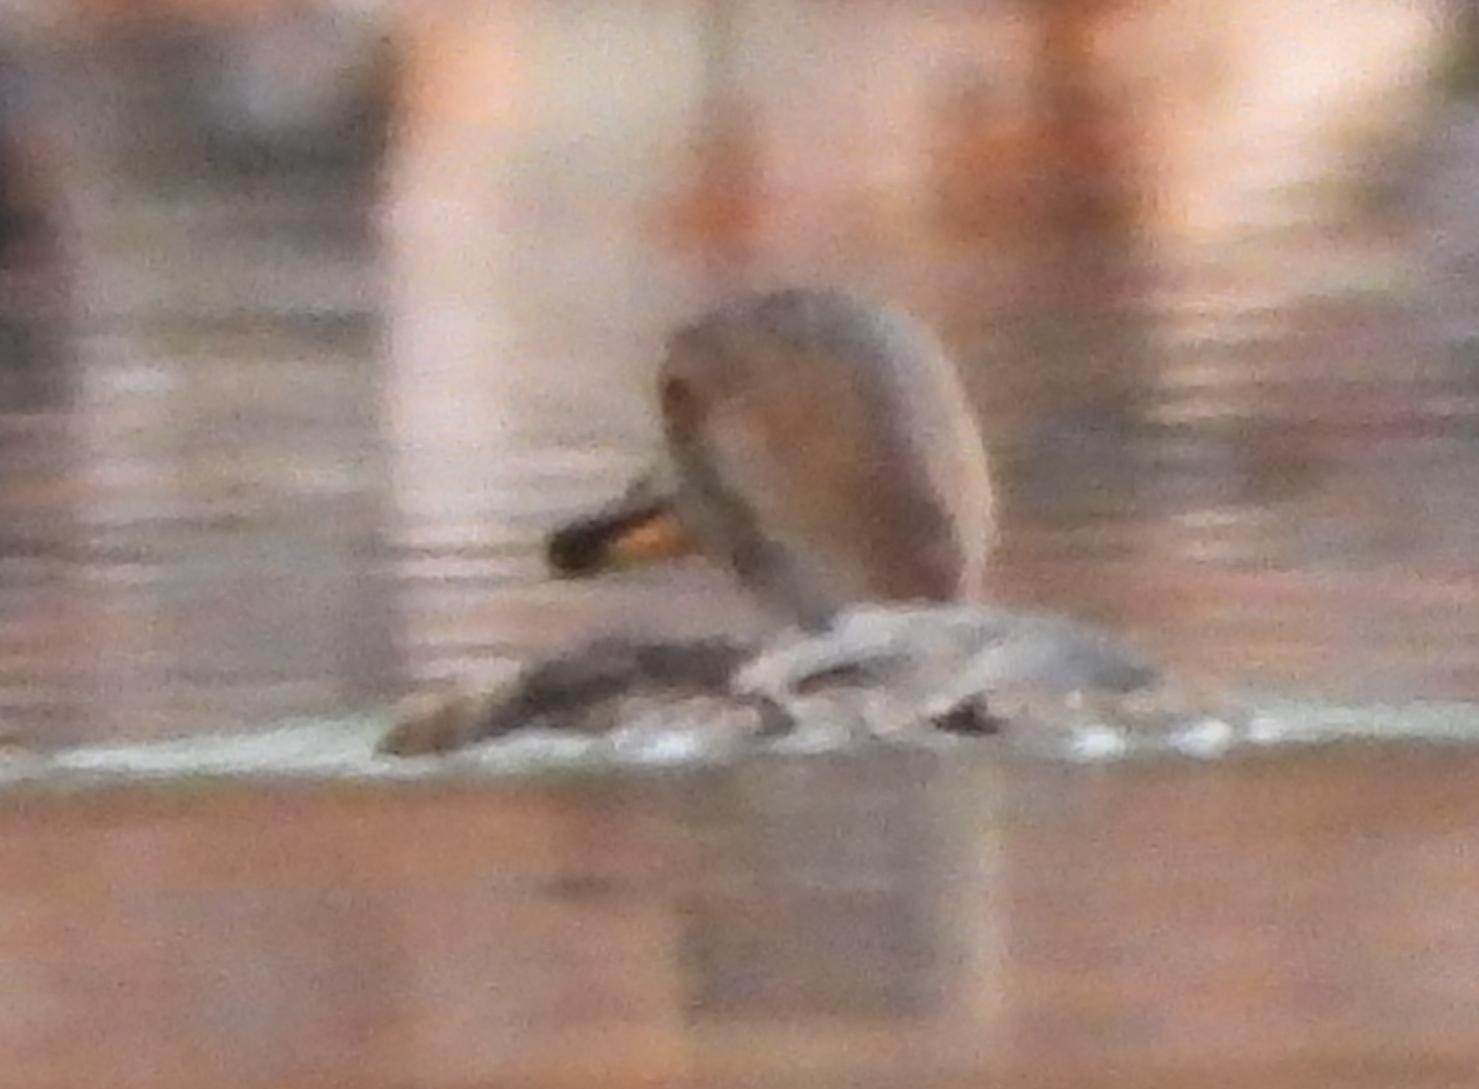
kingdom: Animalia
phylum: Chordata
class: Aves
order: Anseriformes
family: Anatidae
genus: Lophodytes
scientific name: Lophodytes cucullatus
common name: Hooded merganser
